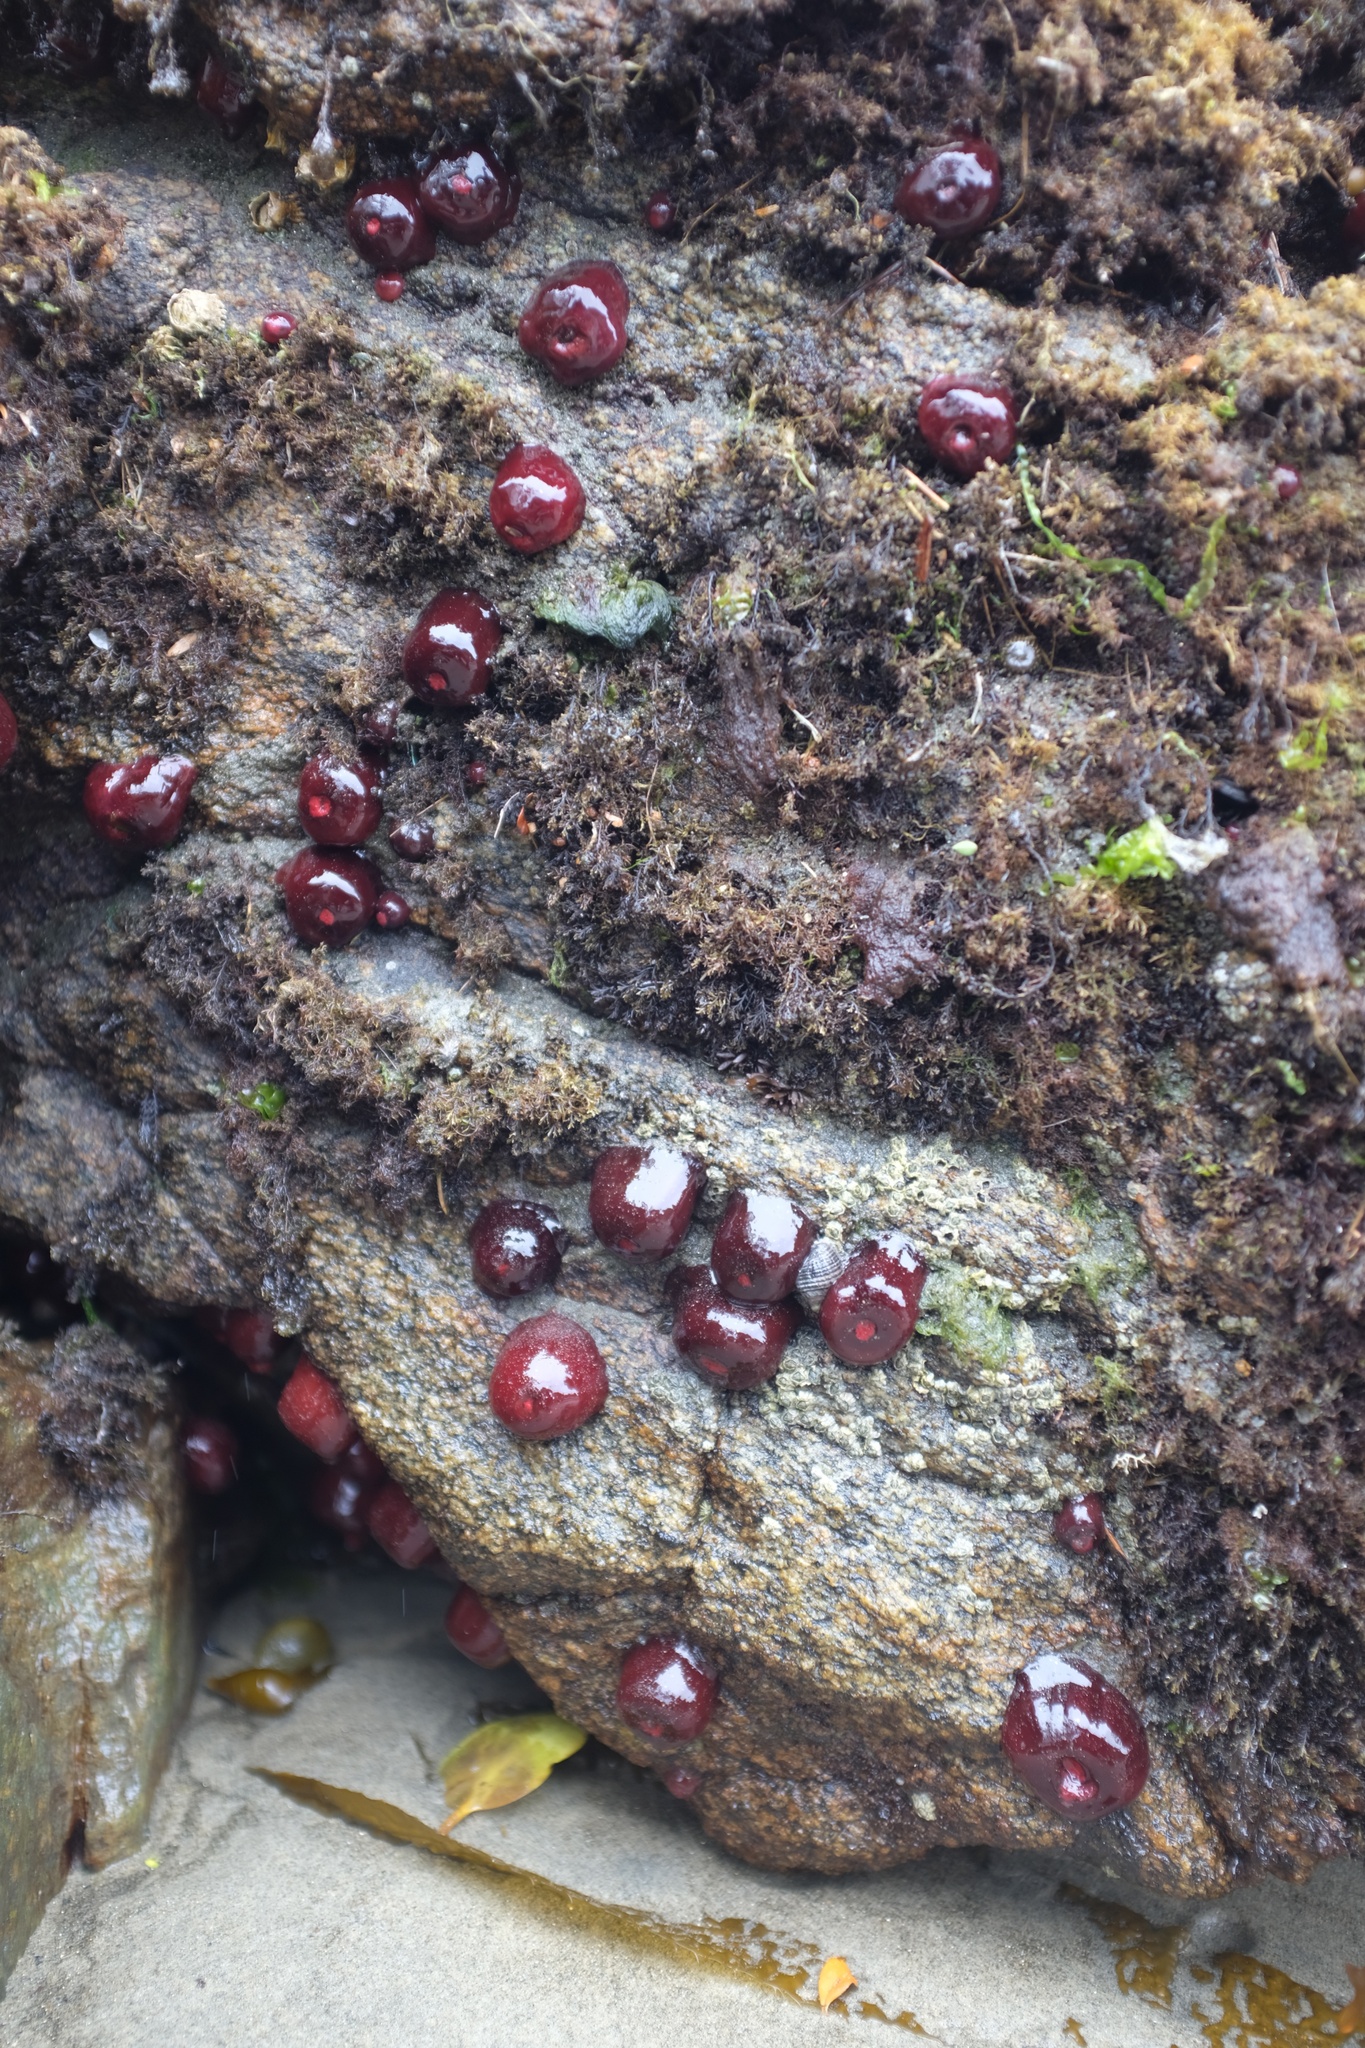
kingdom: Animalia
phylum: Cnidaria
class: Anthozoa
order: Actiniaria
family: Actiniidae
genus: Actinia
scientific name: Actinia tenebrosa
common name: Waratah anemone
